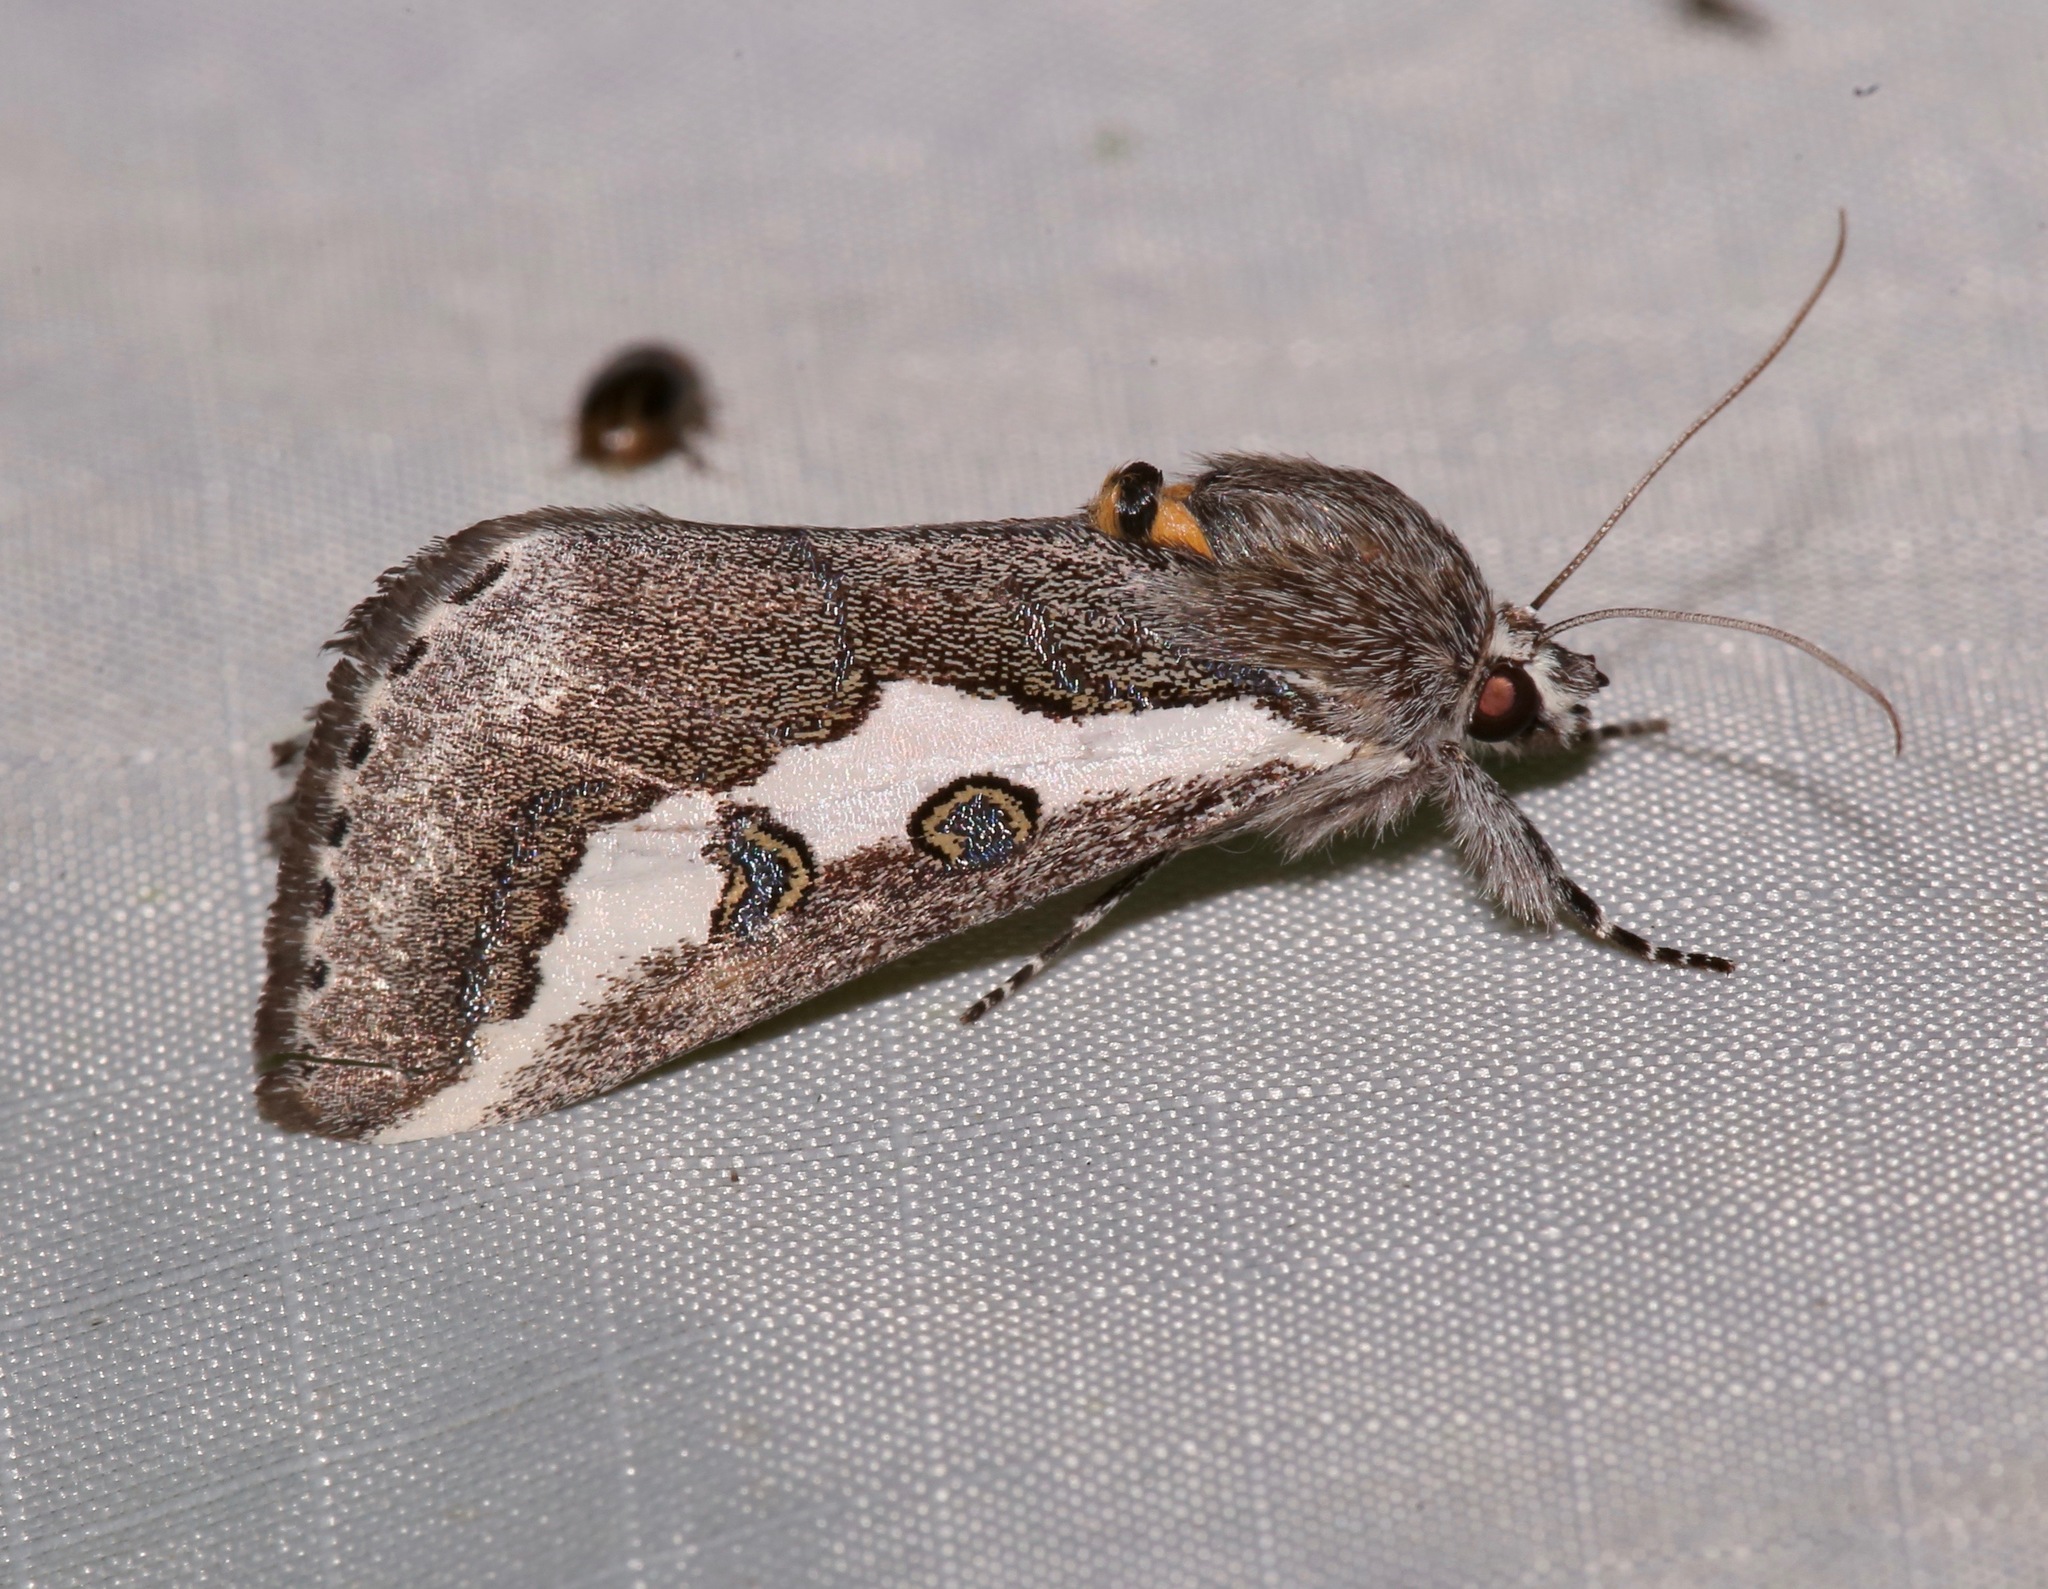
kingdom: Animalia
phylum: Arthropoda
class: Insecta
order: Lepidoptera
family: Noctuidae
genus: Euscirrhopterus
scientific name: Euscirrhopterus gloveri
